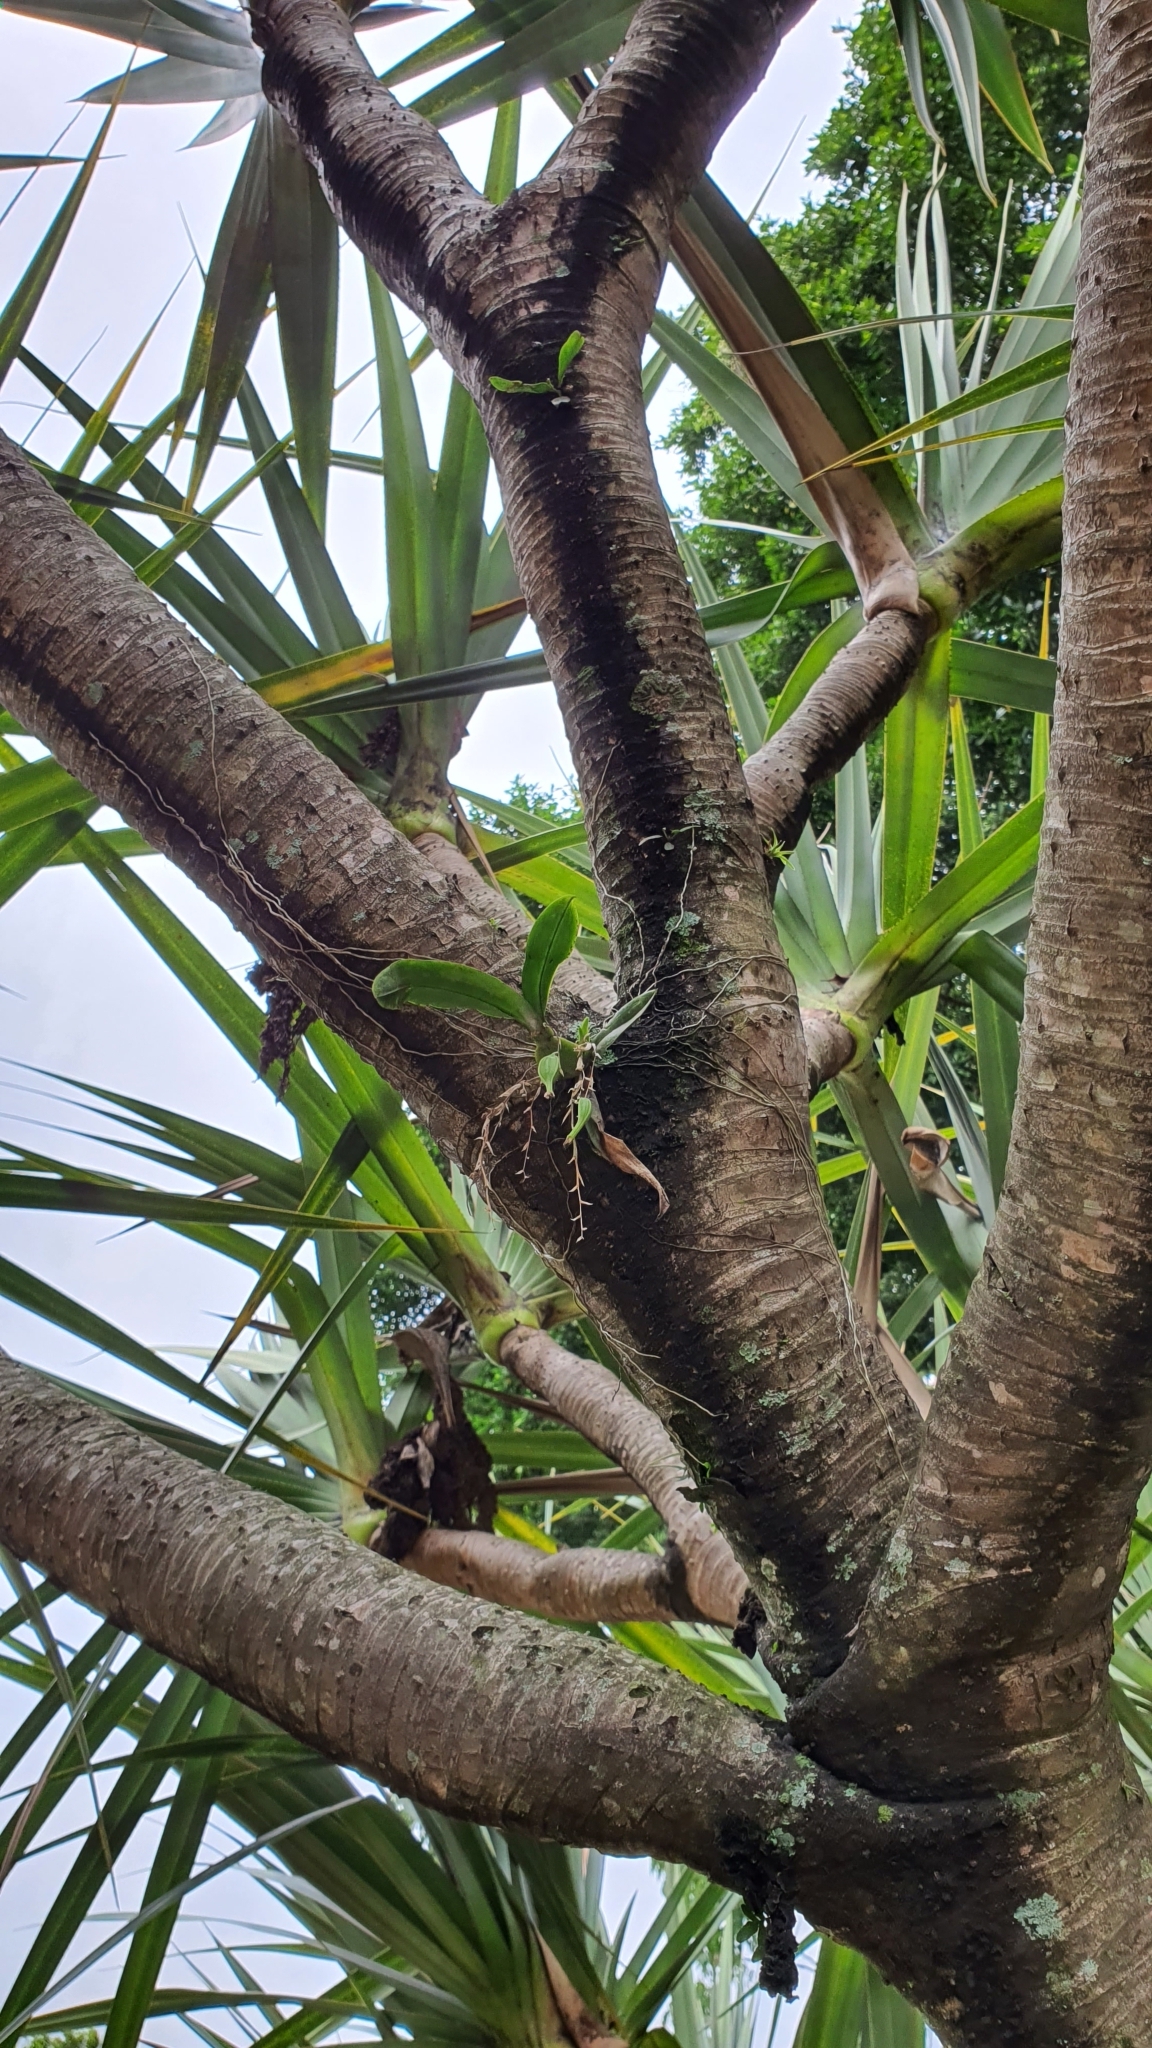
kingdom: Plantae
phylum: Tracheophyta
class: Liliopsida
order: Asparagales
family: Orchidaceae
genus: Leochilus
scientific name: Leochilus oncidioides
